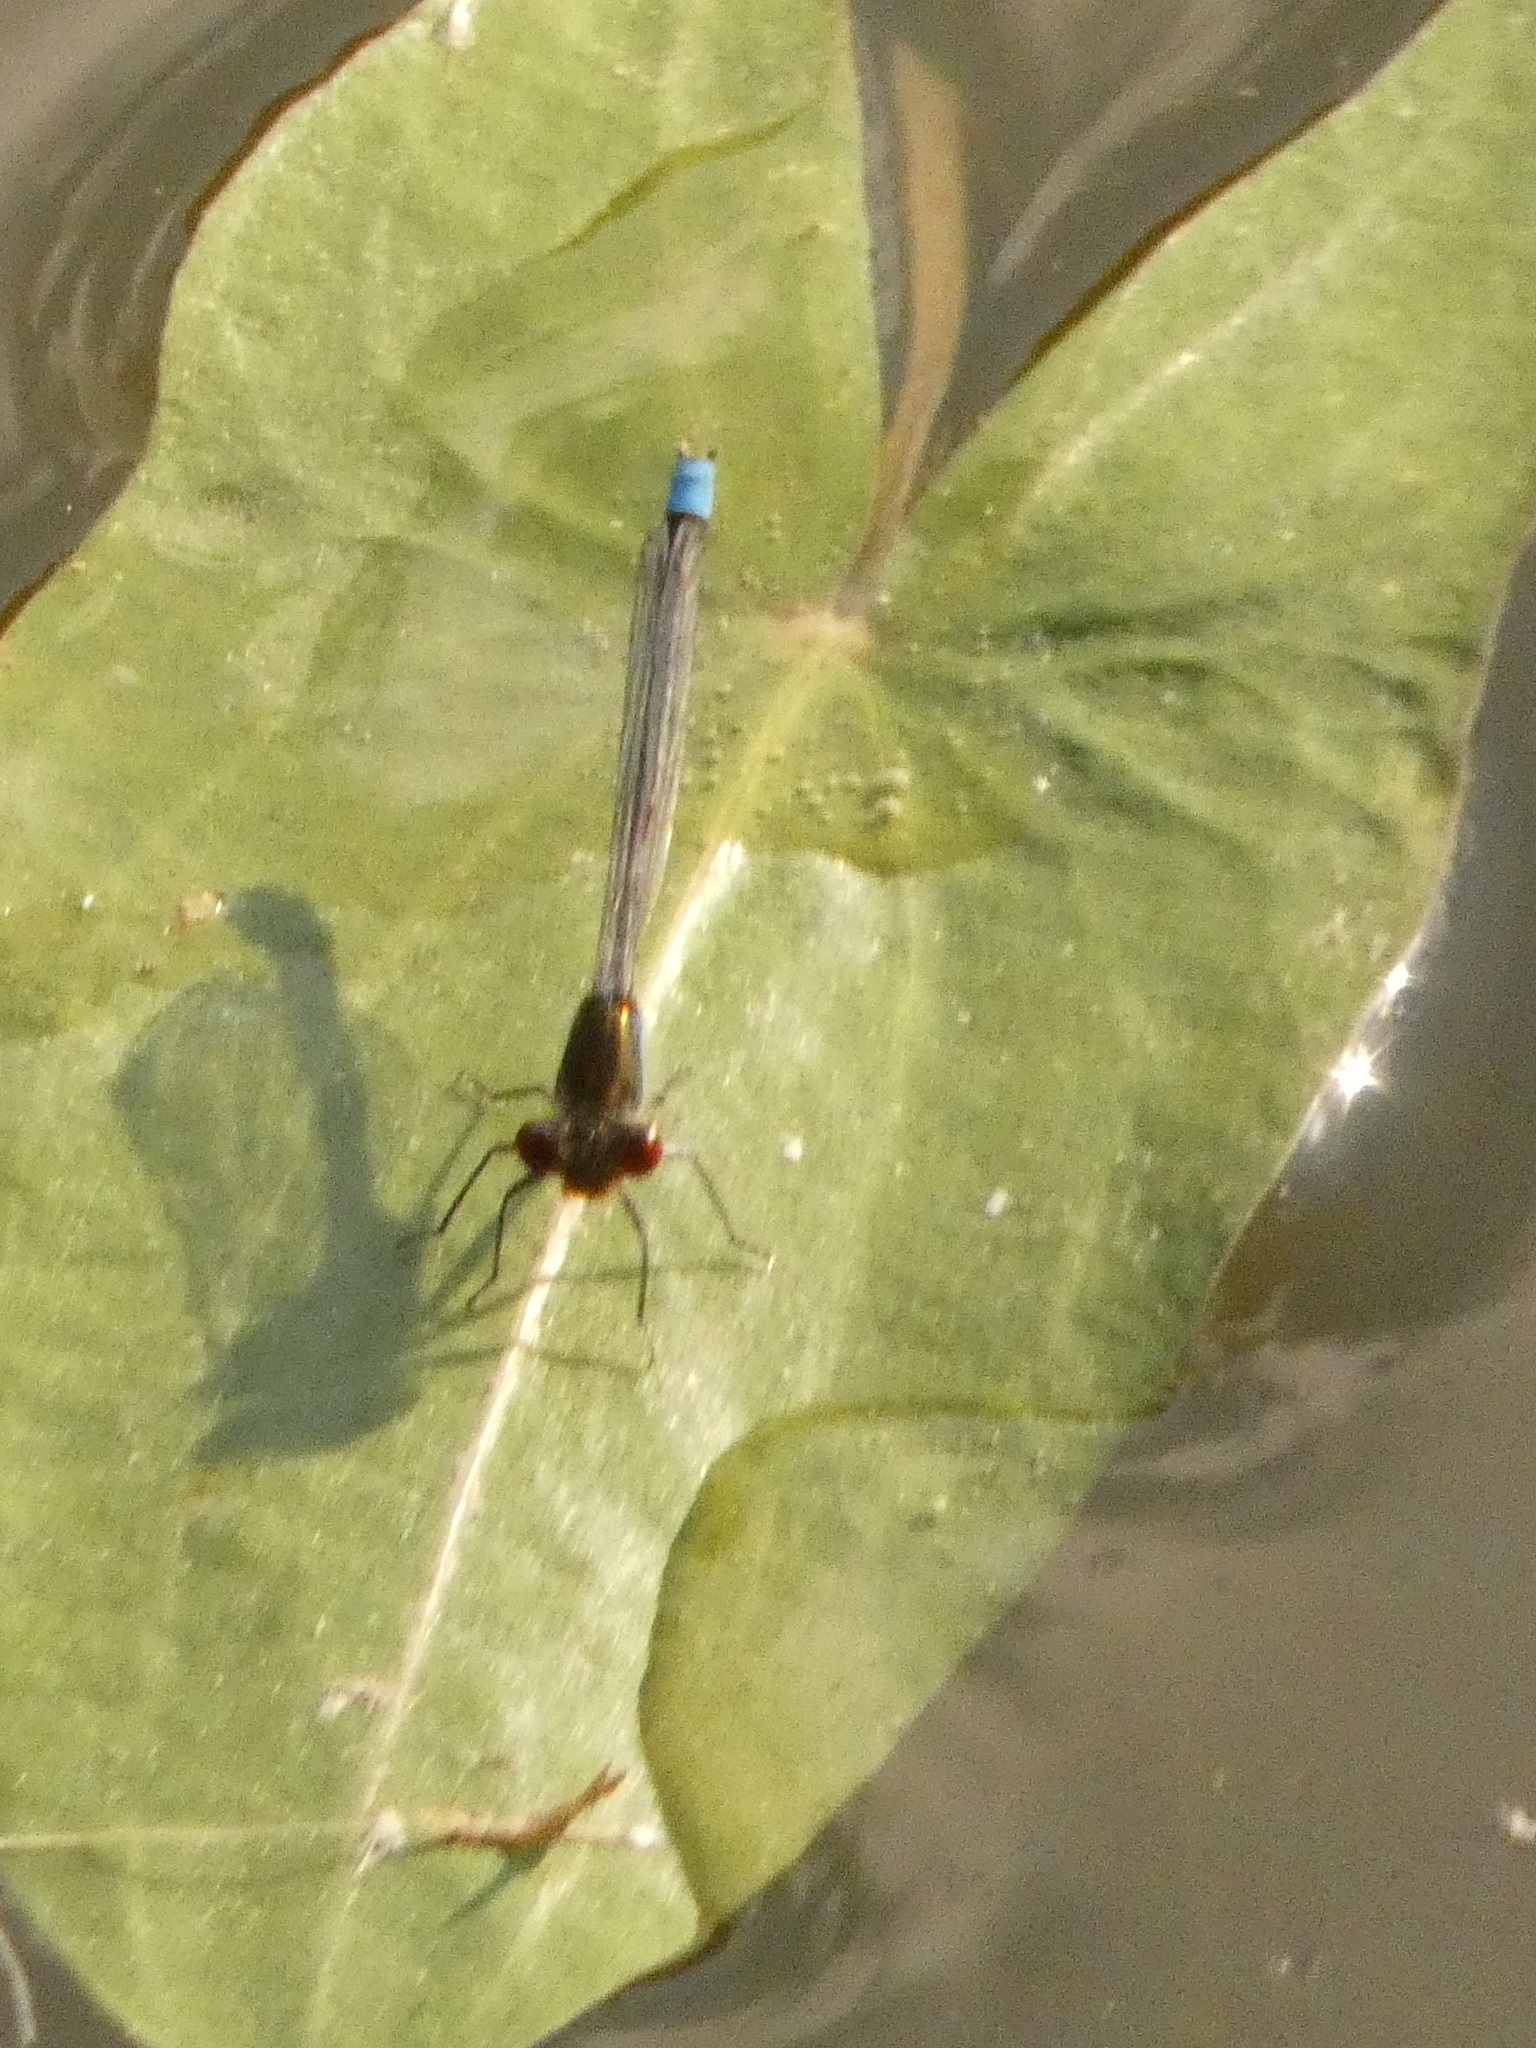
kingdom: Animalia
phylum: Arthropoda
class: Insecta
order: Odonata
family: Coenagrionidae
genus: Erythromma
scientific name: Erythromma najas
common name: Red-eyed damselfly
